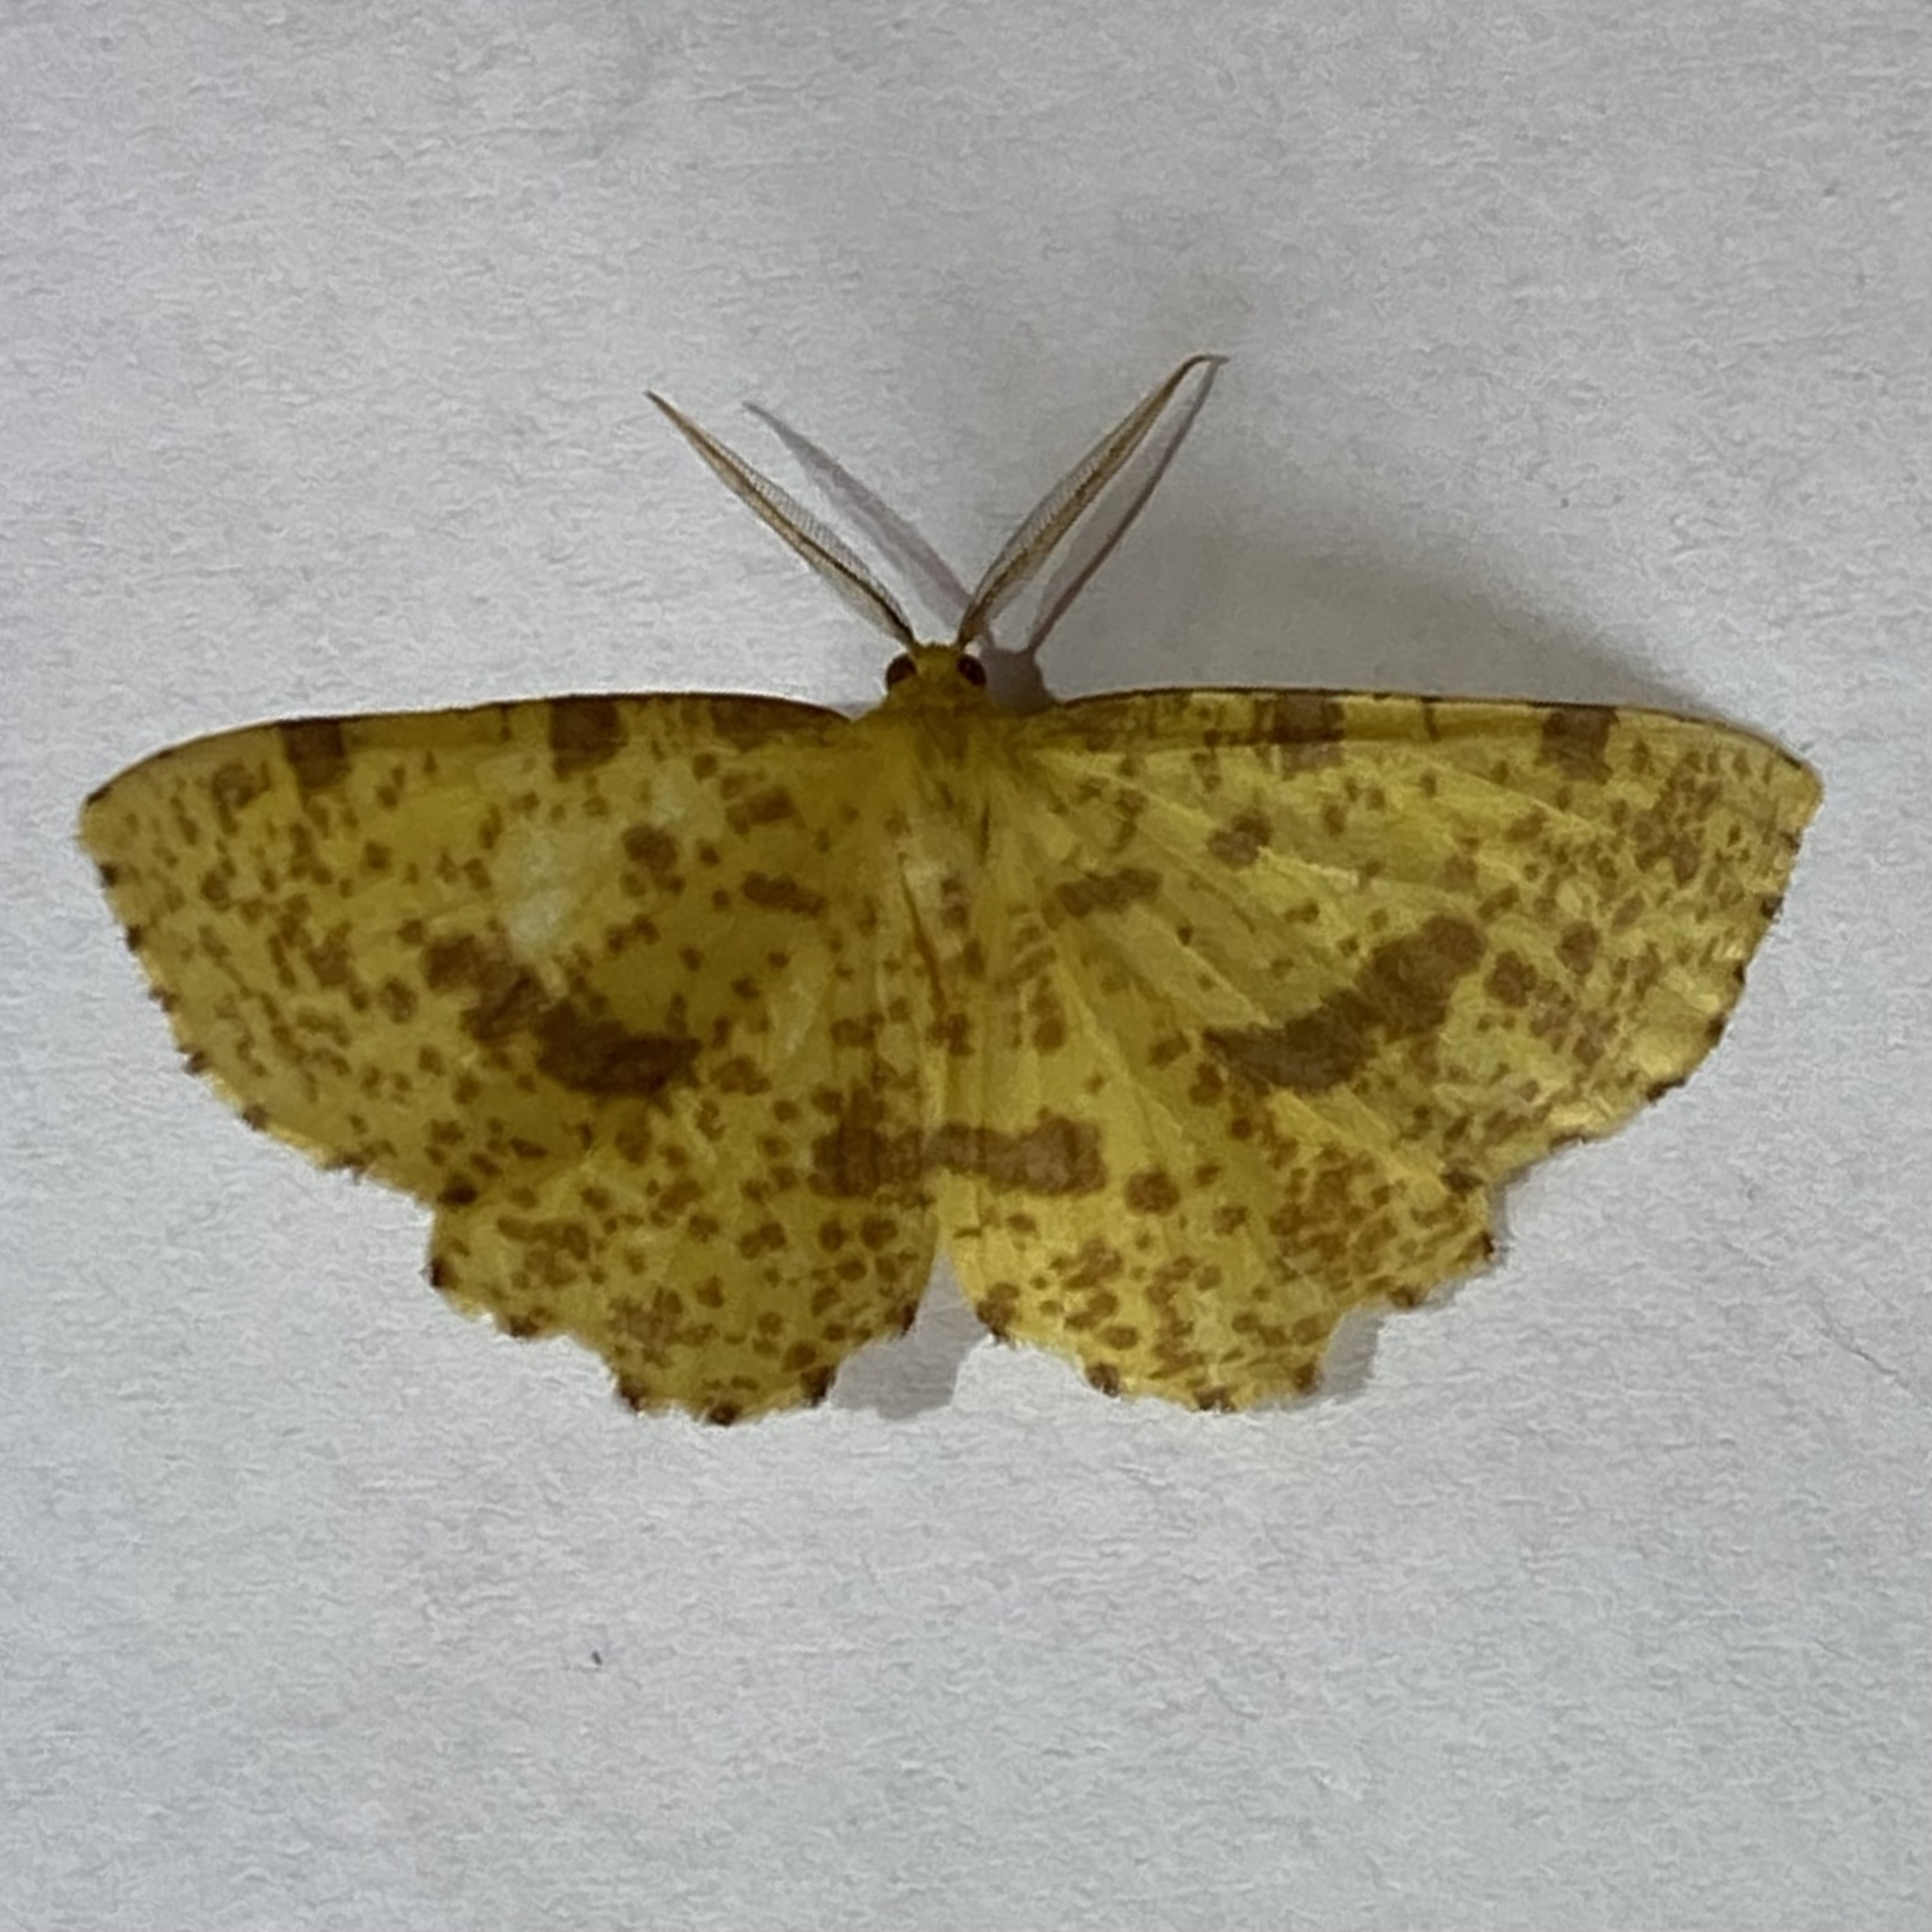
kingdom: Animalia
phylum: Arthropoda
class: Insecta
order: Lepidoptera
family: Geometridae
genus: Xanthotype
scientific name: Xanthotype
